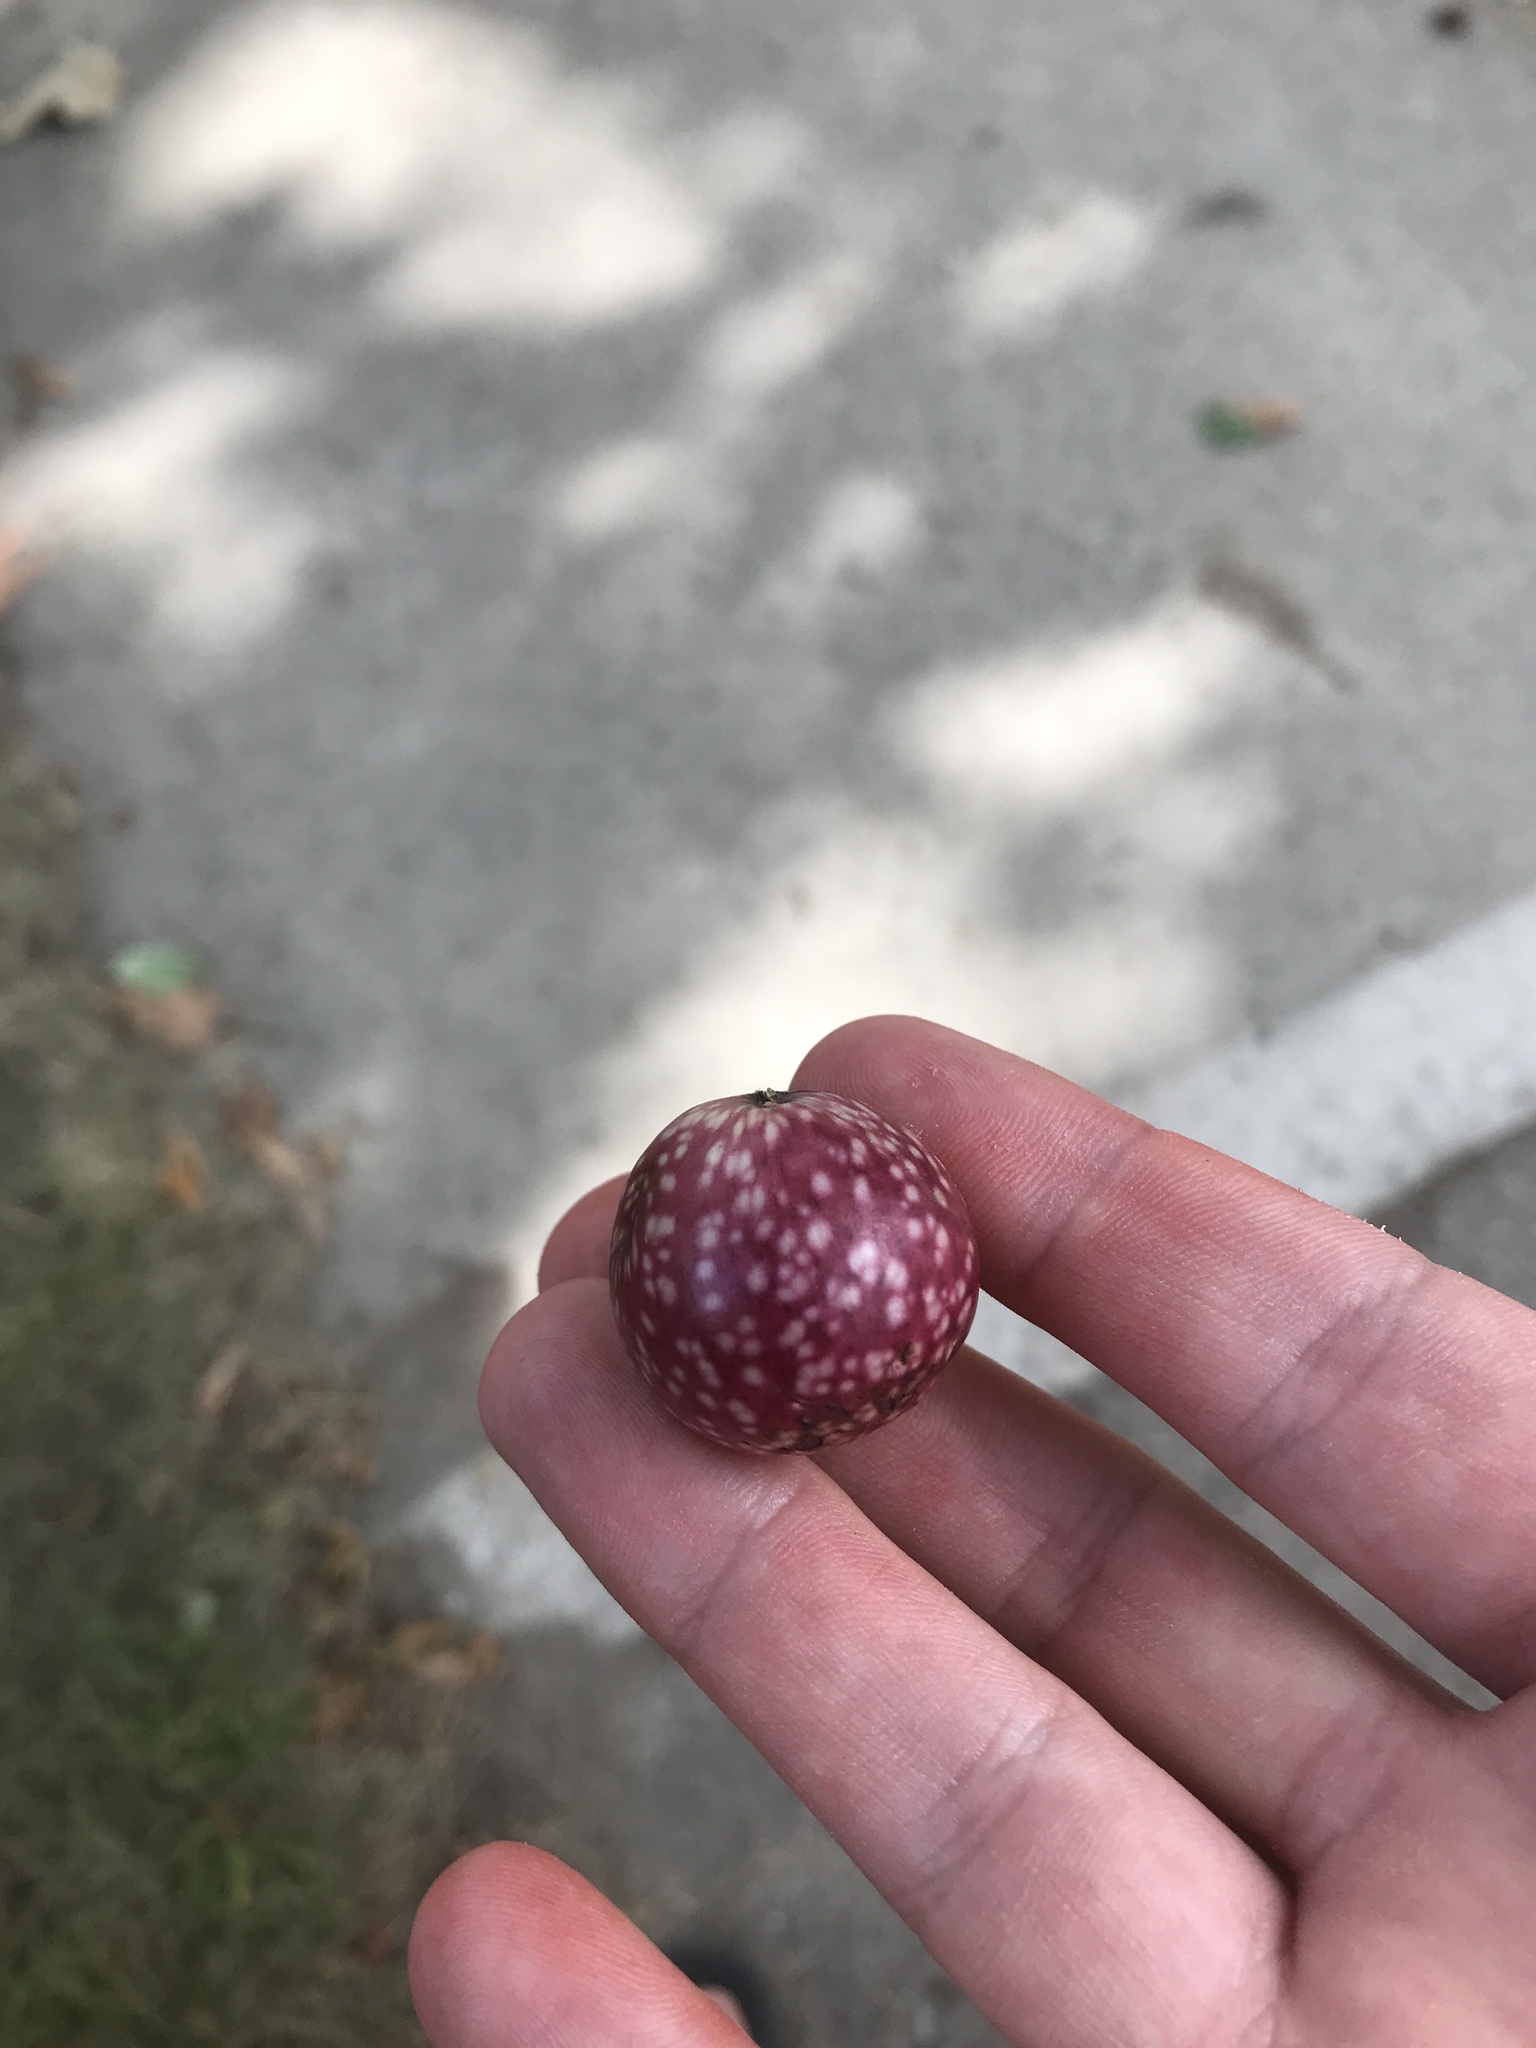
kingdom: Animalia
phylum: Arthropoda
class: Insecta
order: Hymenoptera
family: Cynipidae
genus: Amphibolips
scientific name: Amphibolips
